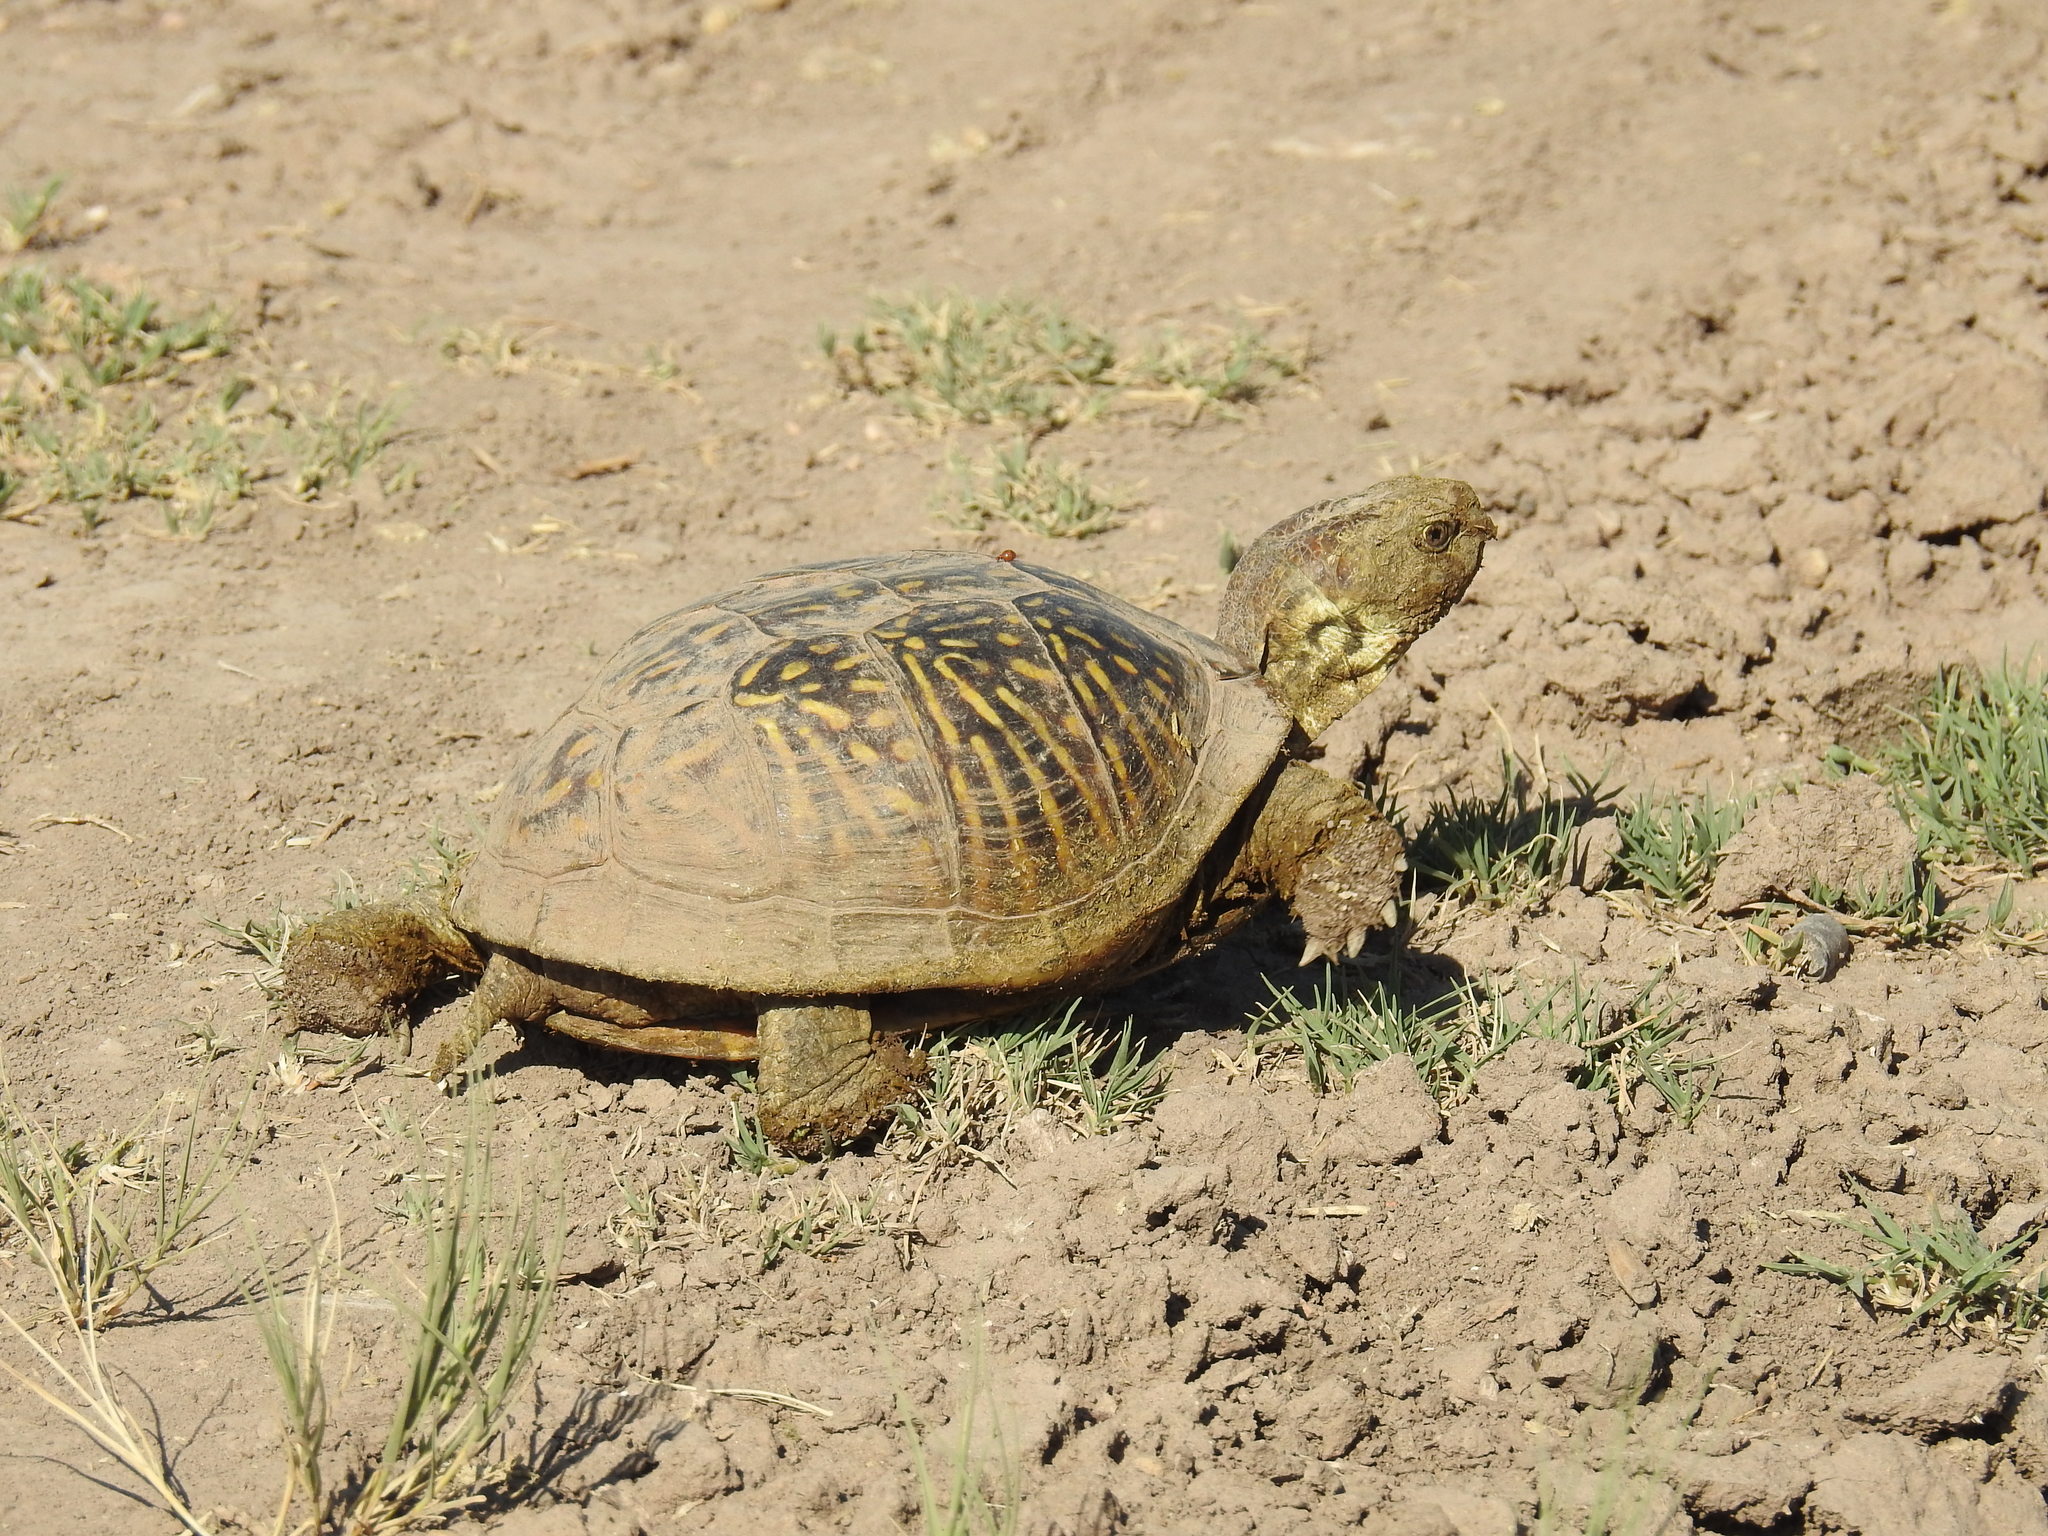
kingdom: Animalia
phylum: Chordata
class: Testudines
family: Emydidae
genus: Terrapene
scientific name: Terrapene ornata
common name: Western box turtle
